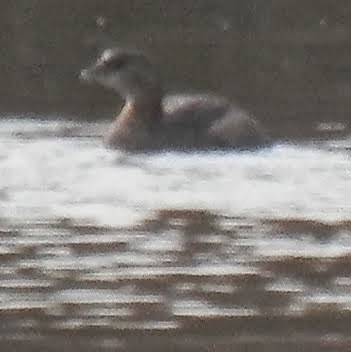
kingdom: Animalia
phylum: Chordata
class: Aves
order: Podicipediformes
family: Podicipedidae
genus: Podilymbus
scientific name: Podilymbus podiceps
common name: Pied-billed grebe
